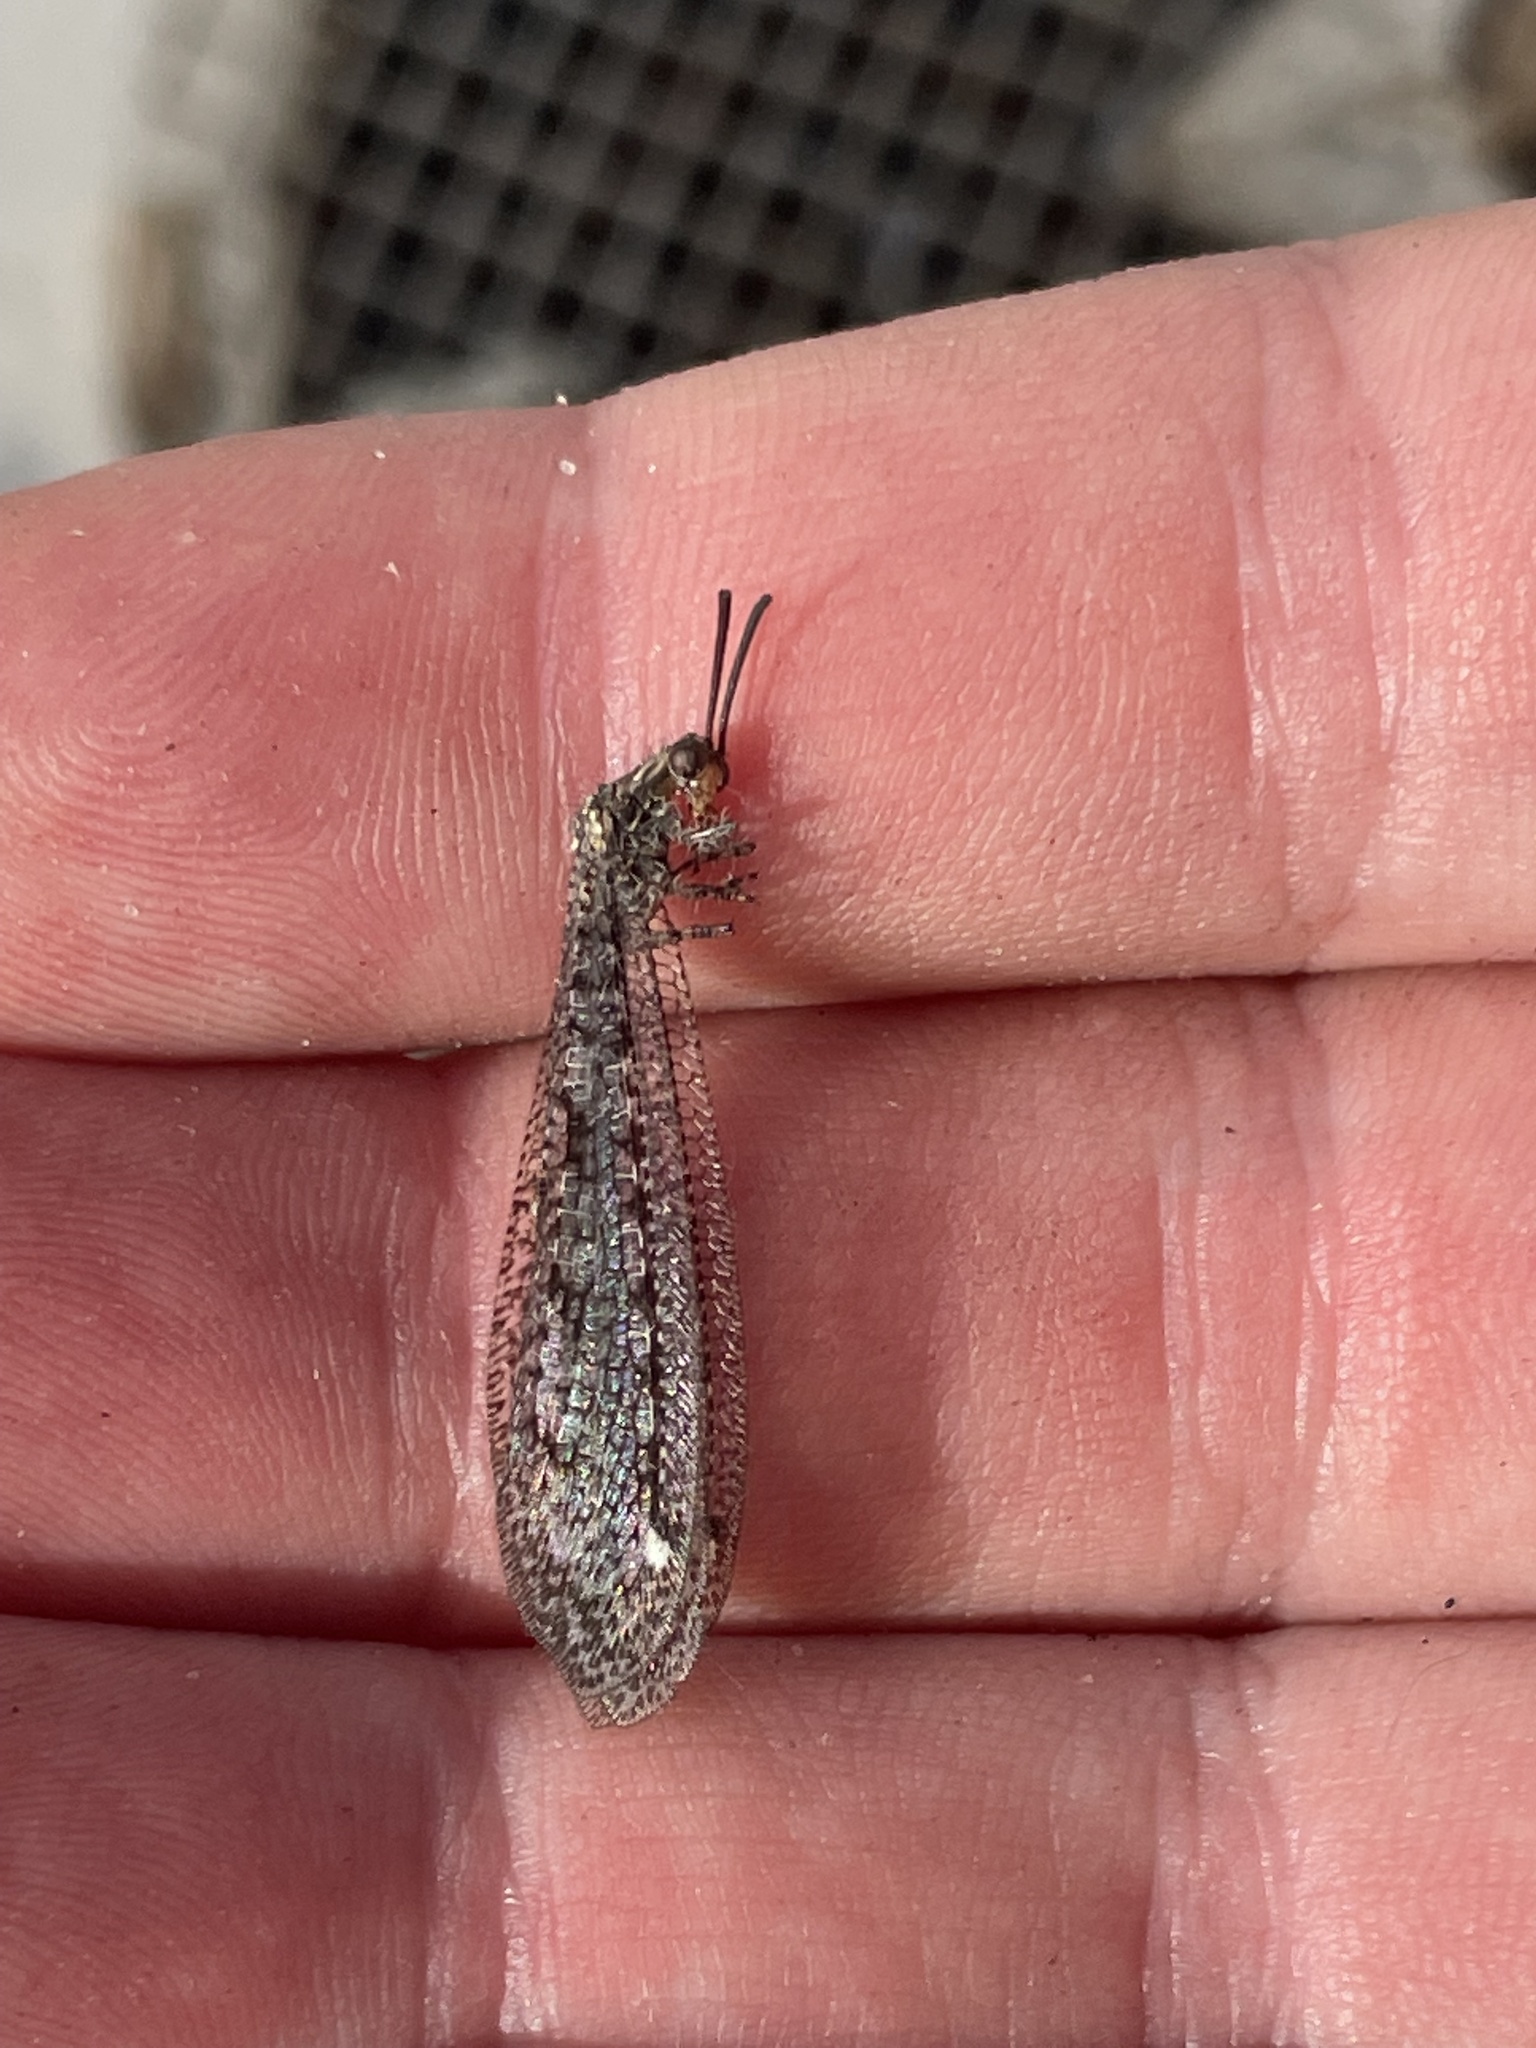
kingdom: Animalia
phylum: Arthropoda
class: Insecta
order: Neuroptera
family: Myrmeleontidae
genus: Brachynemurus
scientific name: Brachynemurus nebulosus
